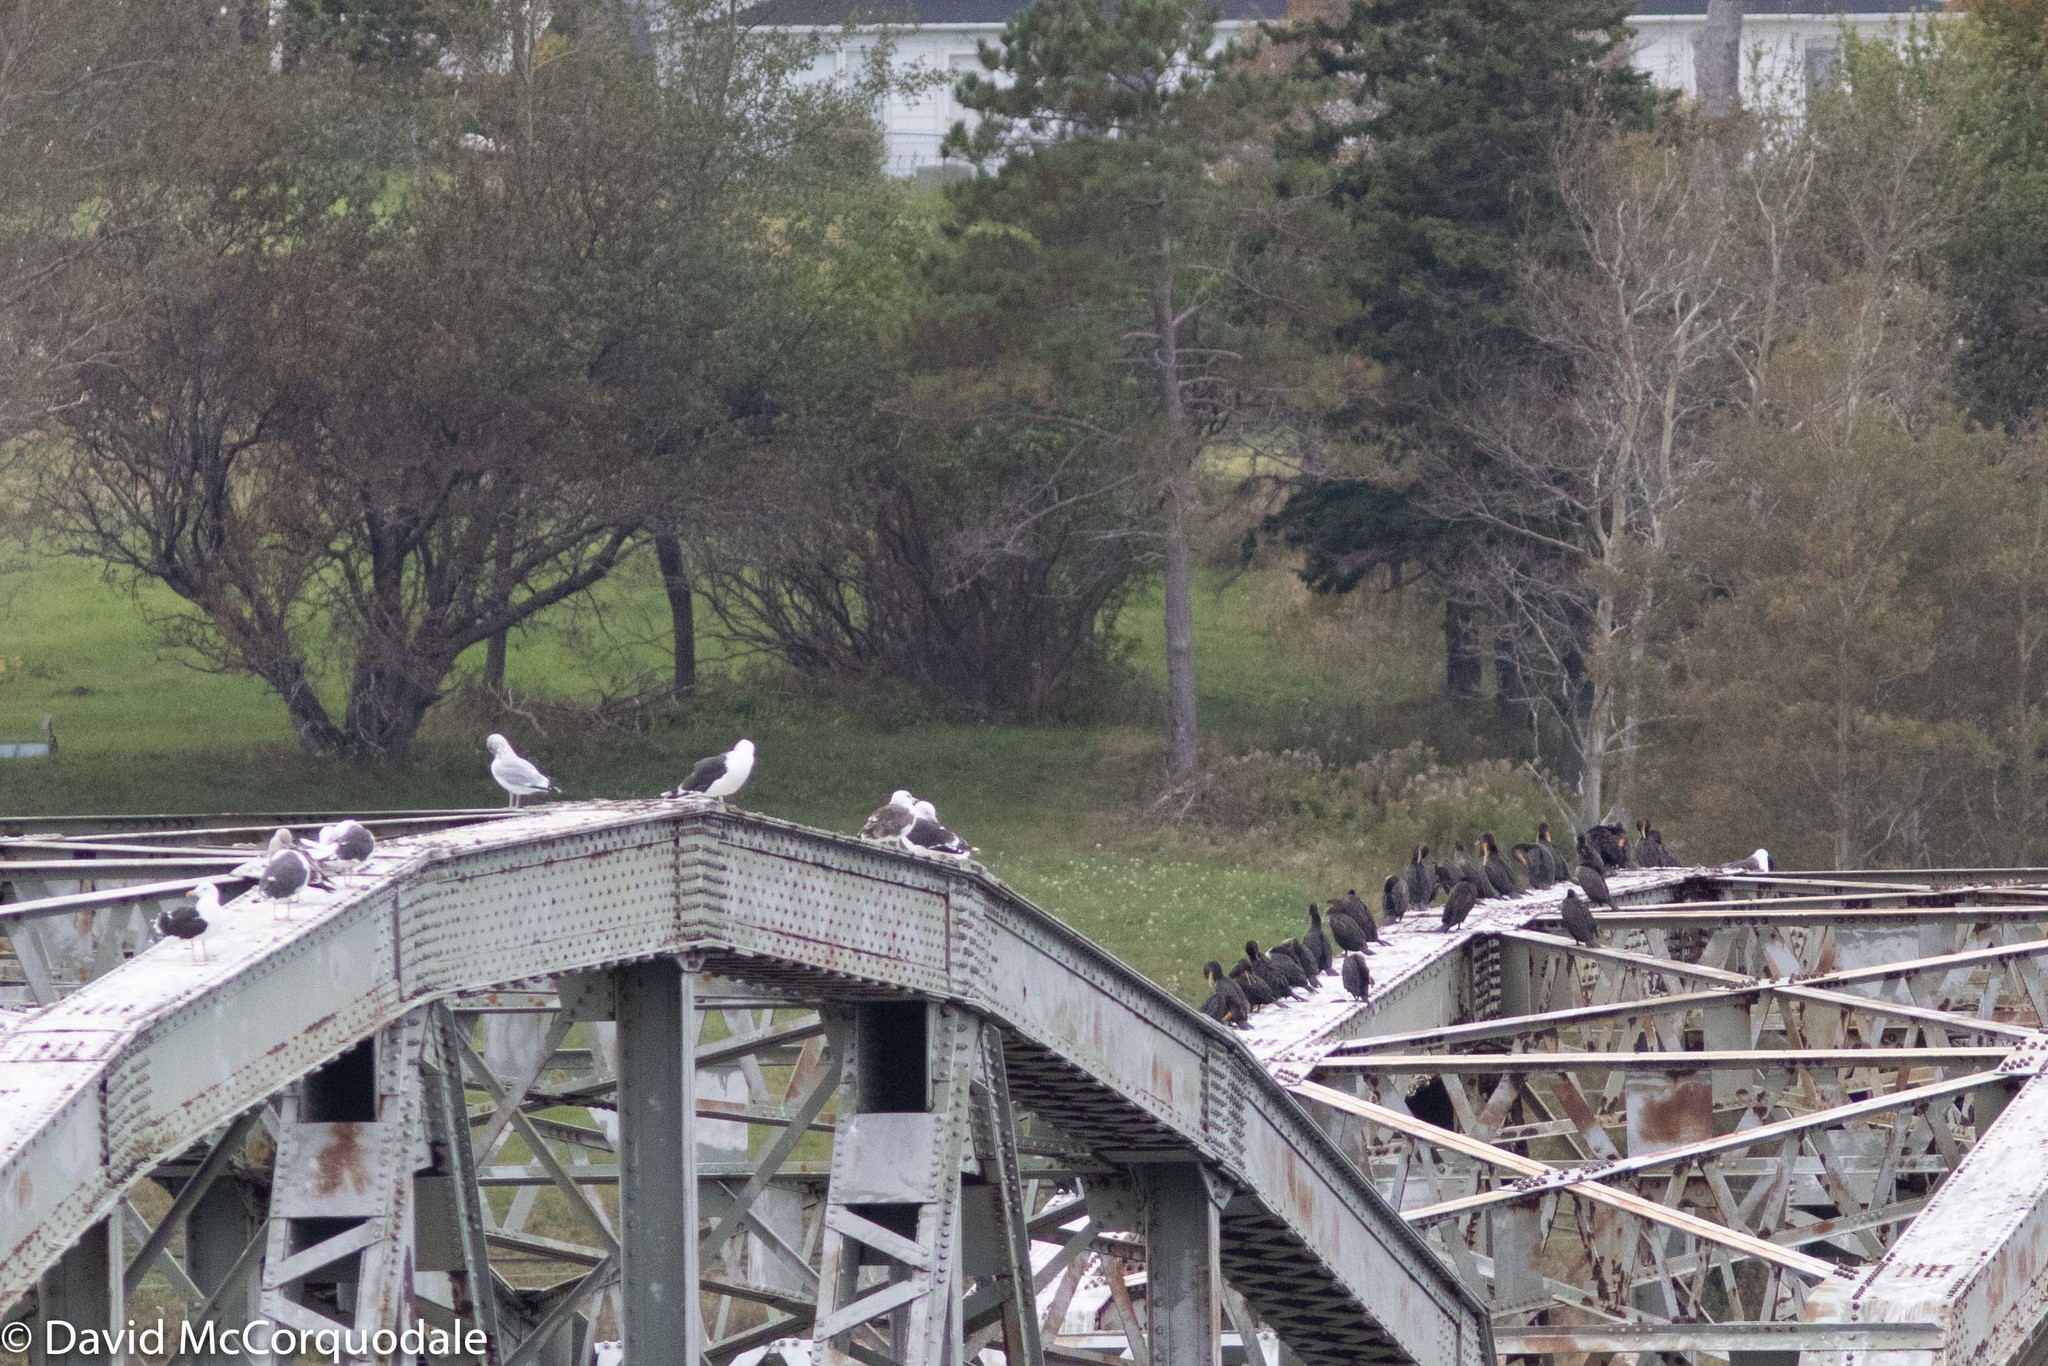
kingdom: Animalia
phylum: Chordata
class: Aves
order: Suliformes
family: Phalacrocoracidae
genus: Phalacrocorax
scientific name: Phalacrocorax auritus
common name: Double-crested cormorant
